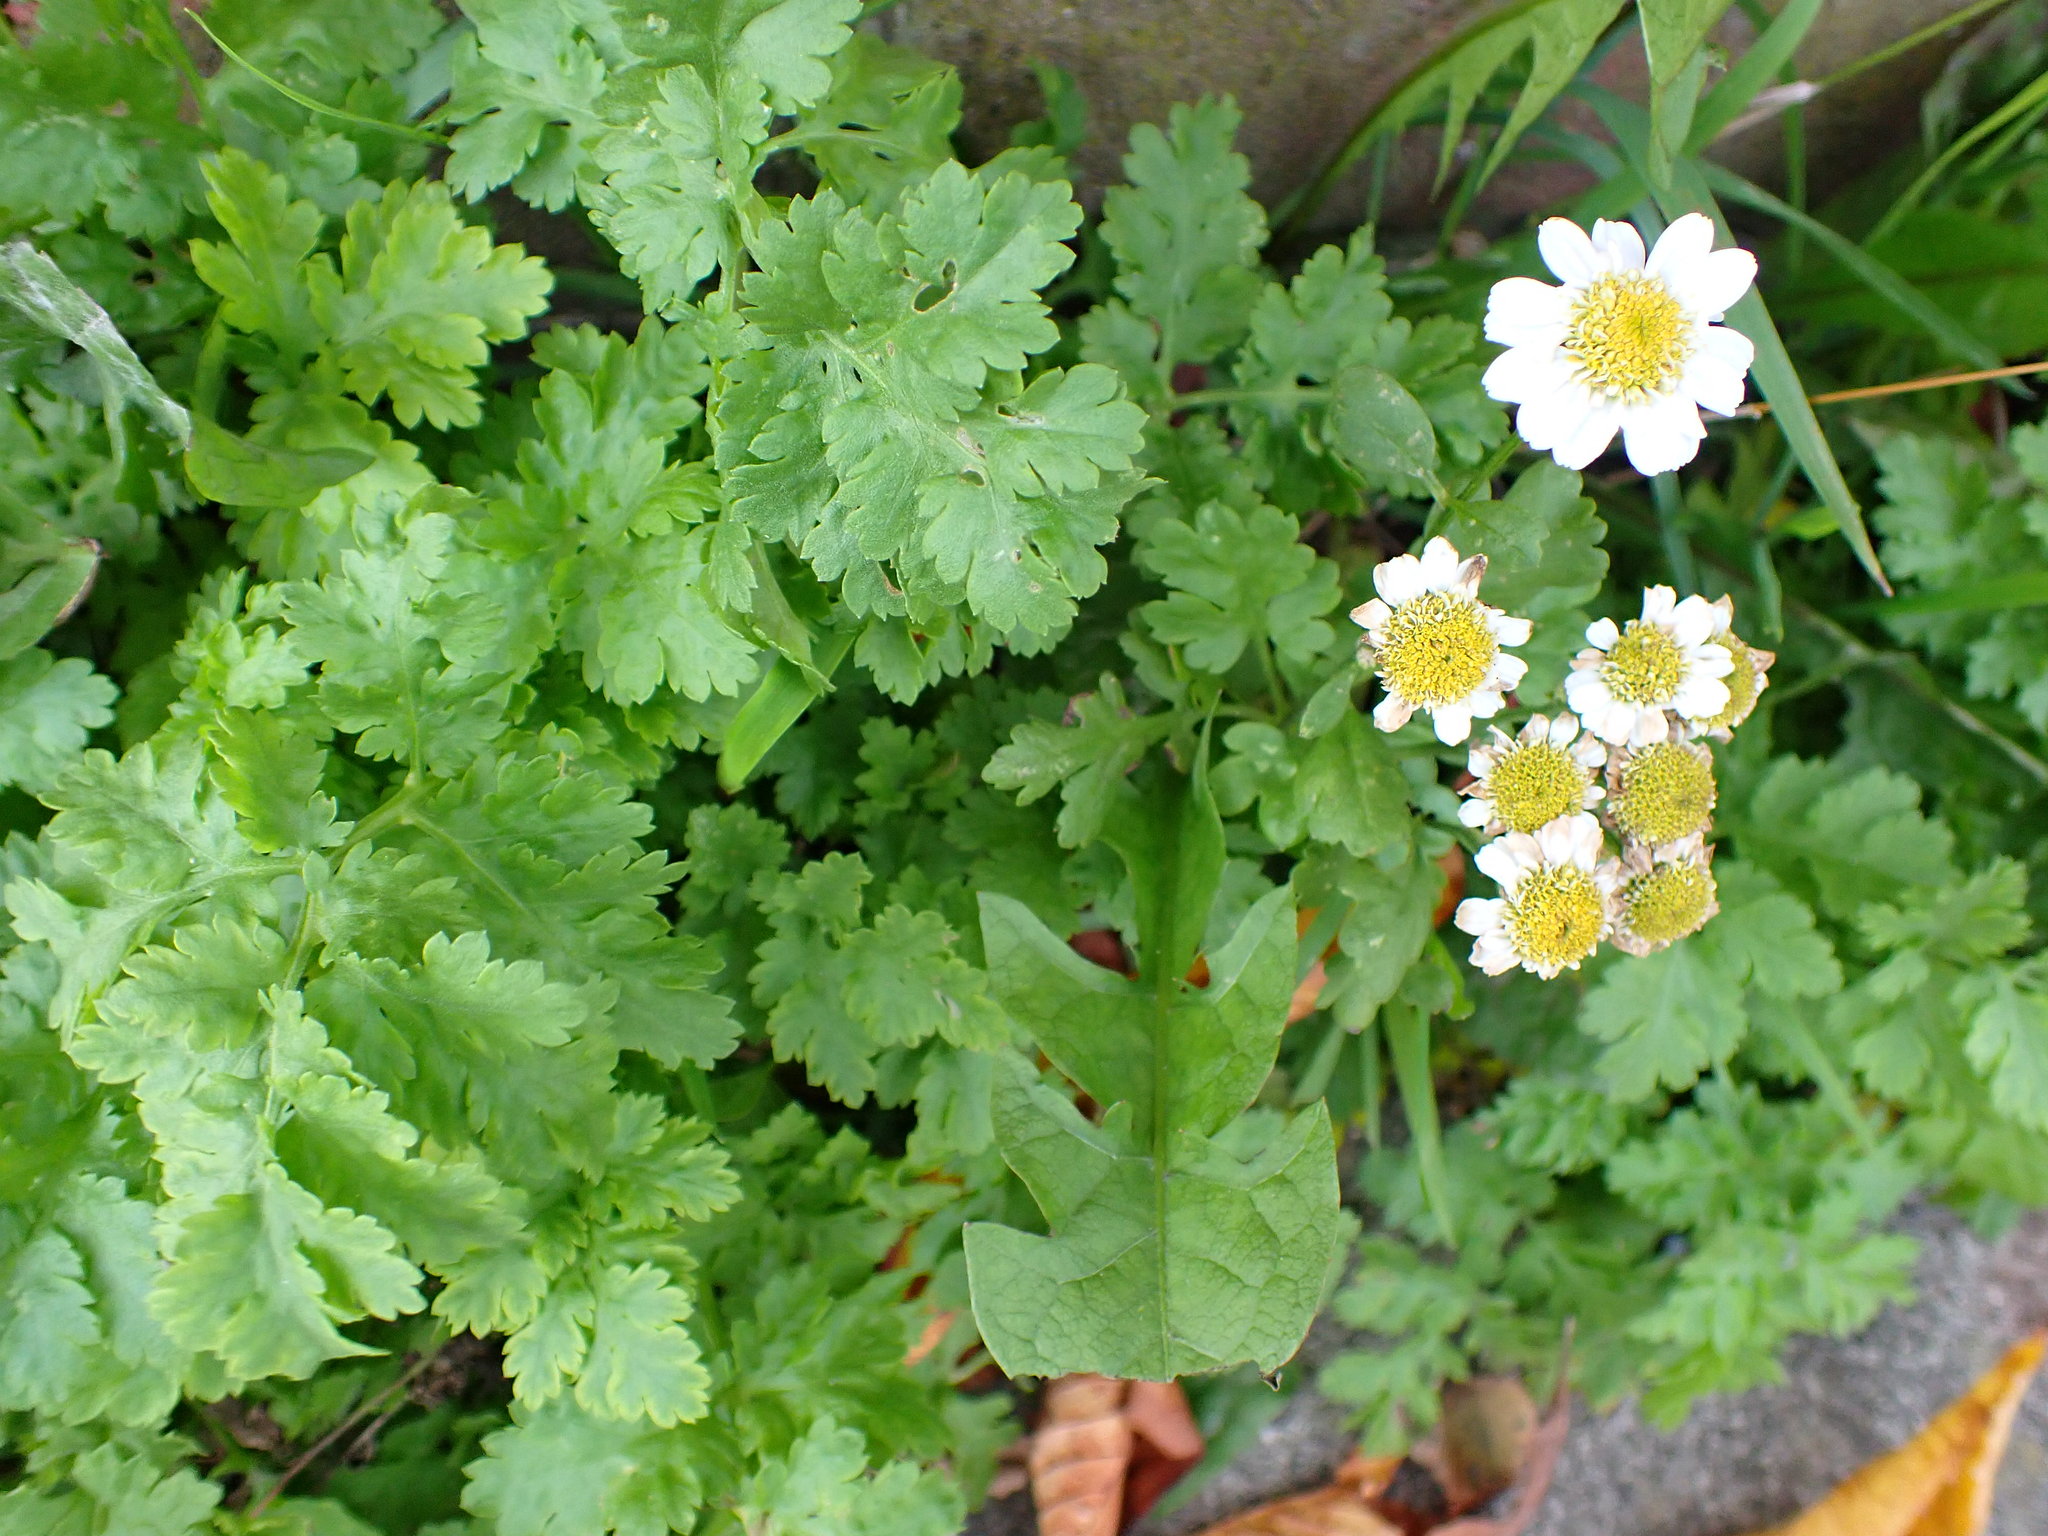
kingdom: Plantae
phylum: Tracheophyta
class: Magnoliopsida
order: Asterales
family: Asteraceae
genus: Tanacetum
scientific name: Tanacetum parthenium
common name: Feverfew
